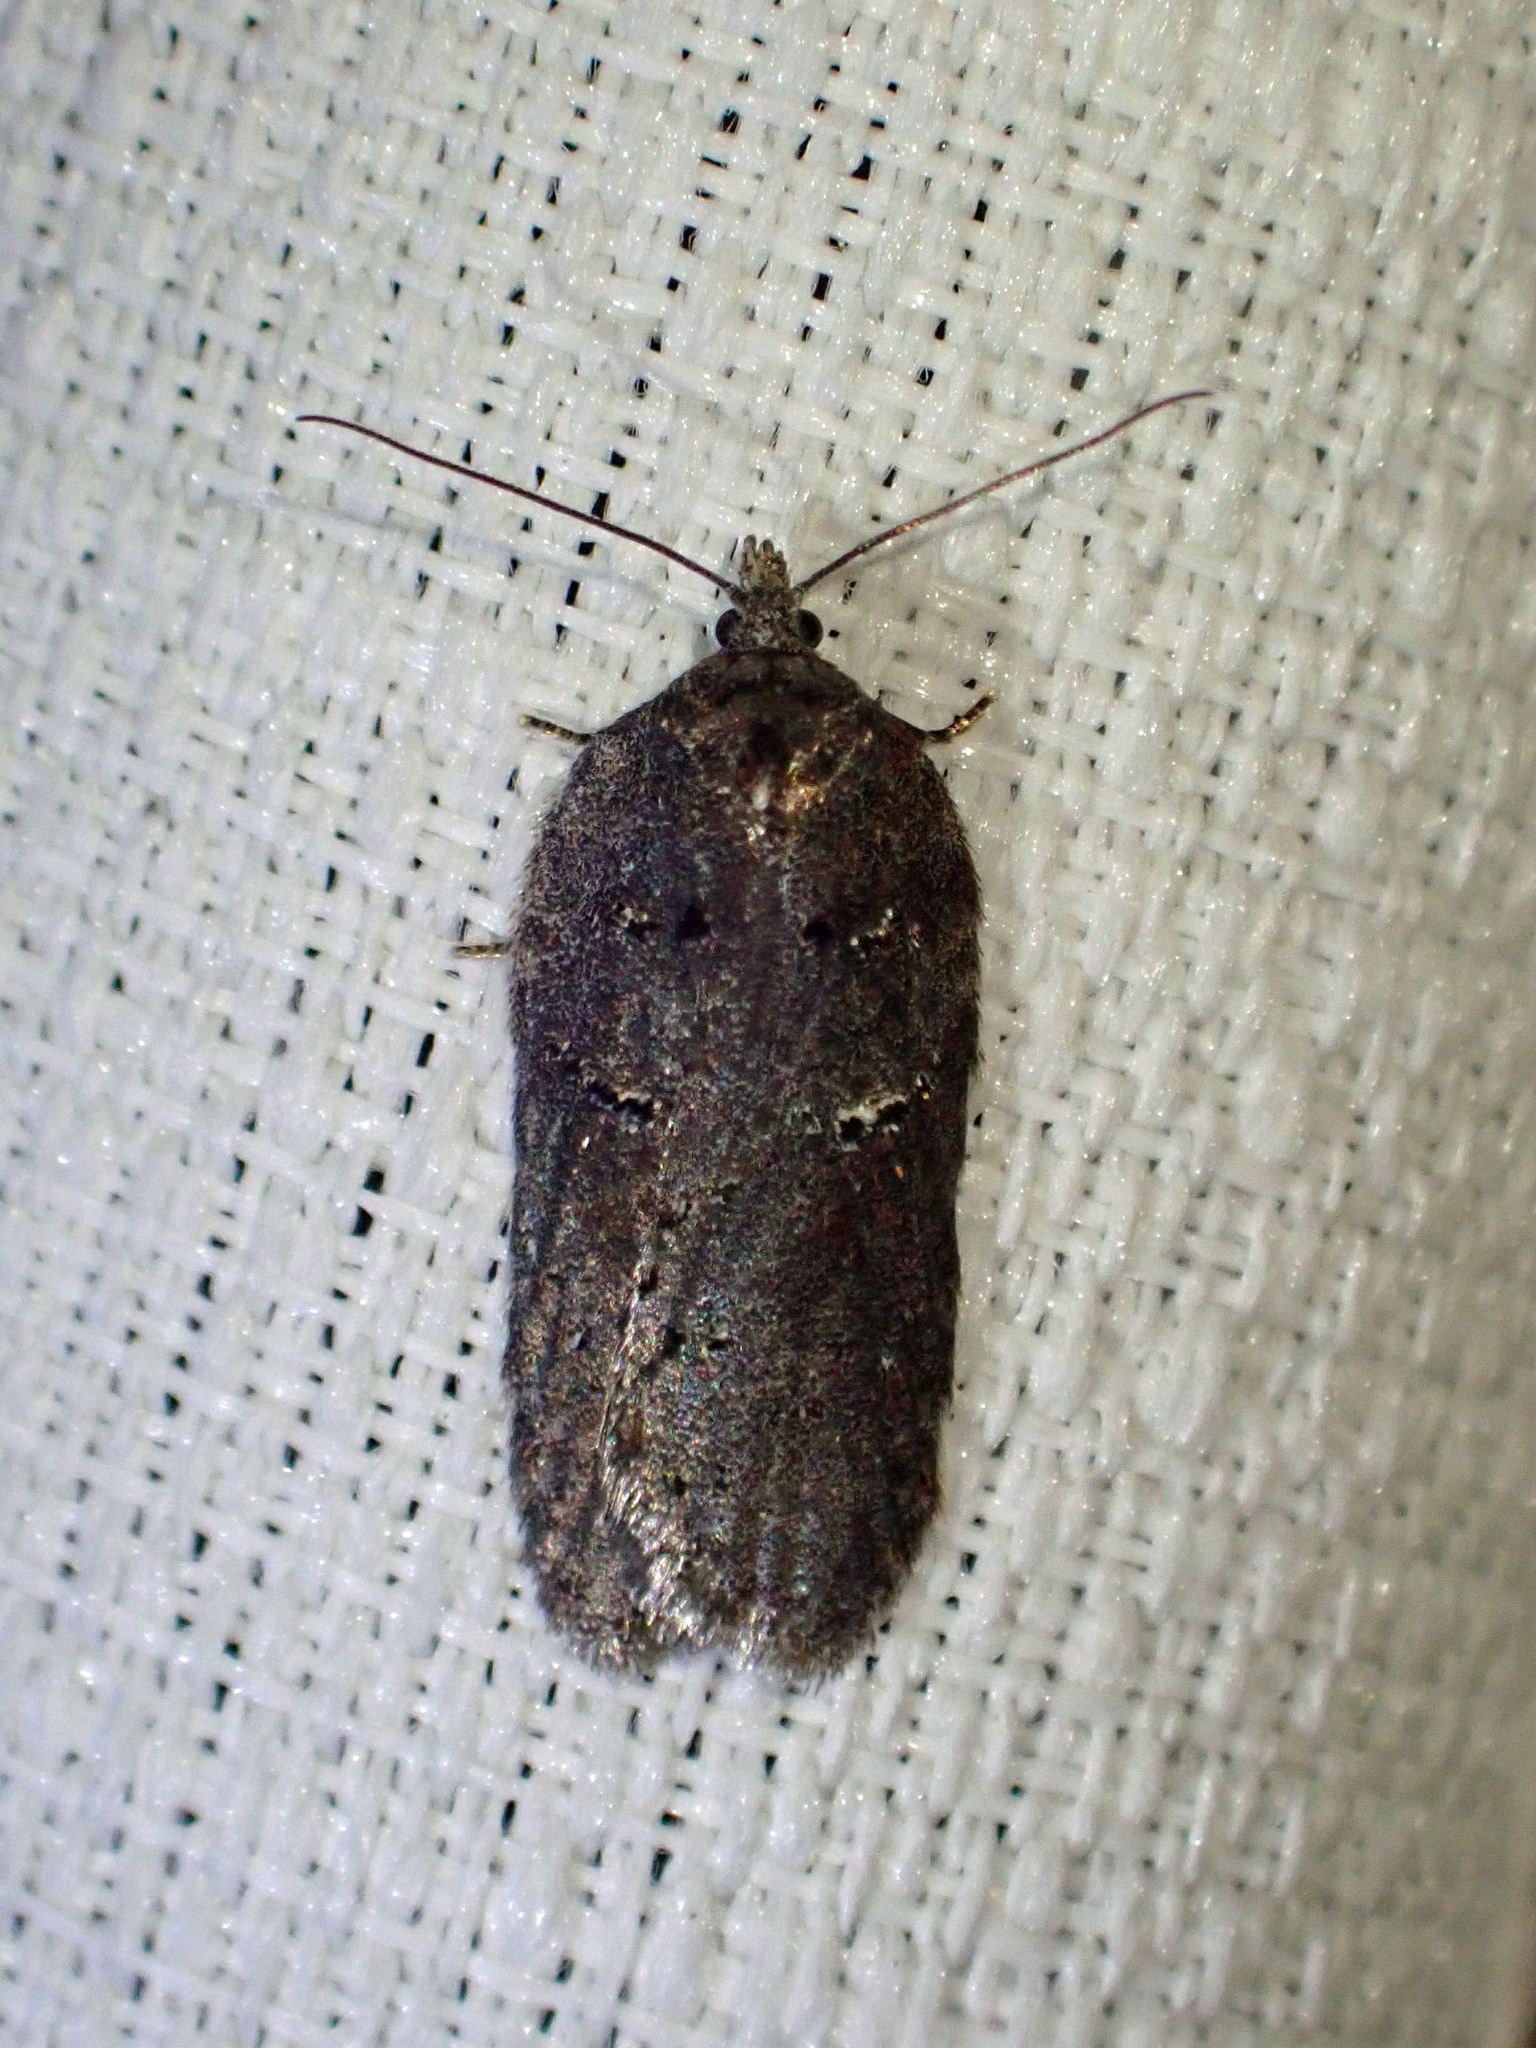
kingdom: Animalia
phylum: Arthropoda
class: Insecta
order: Lepidoptera
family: Tortricidae
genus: Acleris
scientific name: Acleris caliginosana
